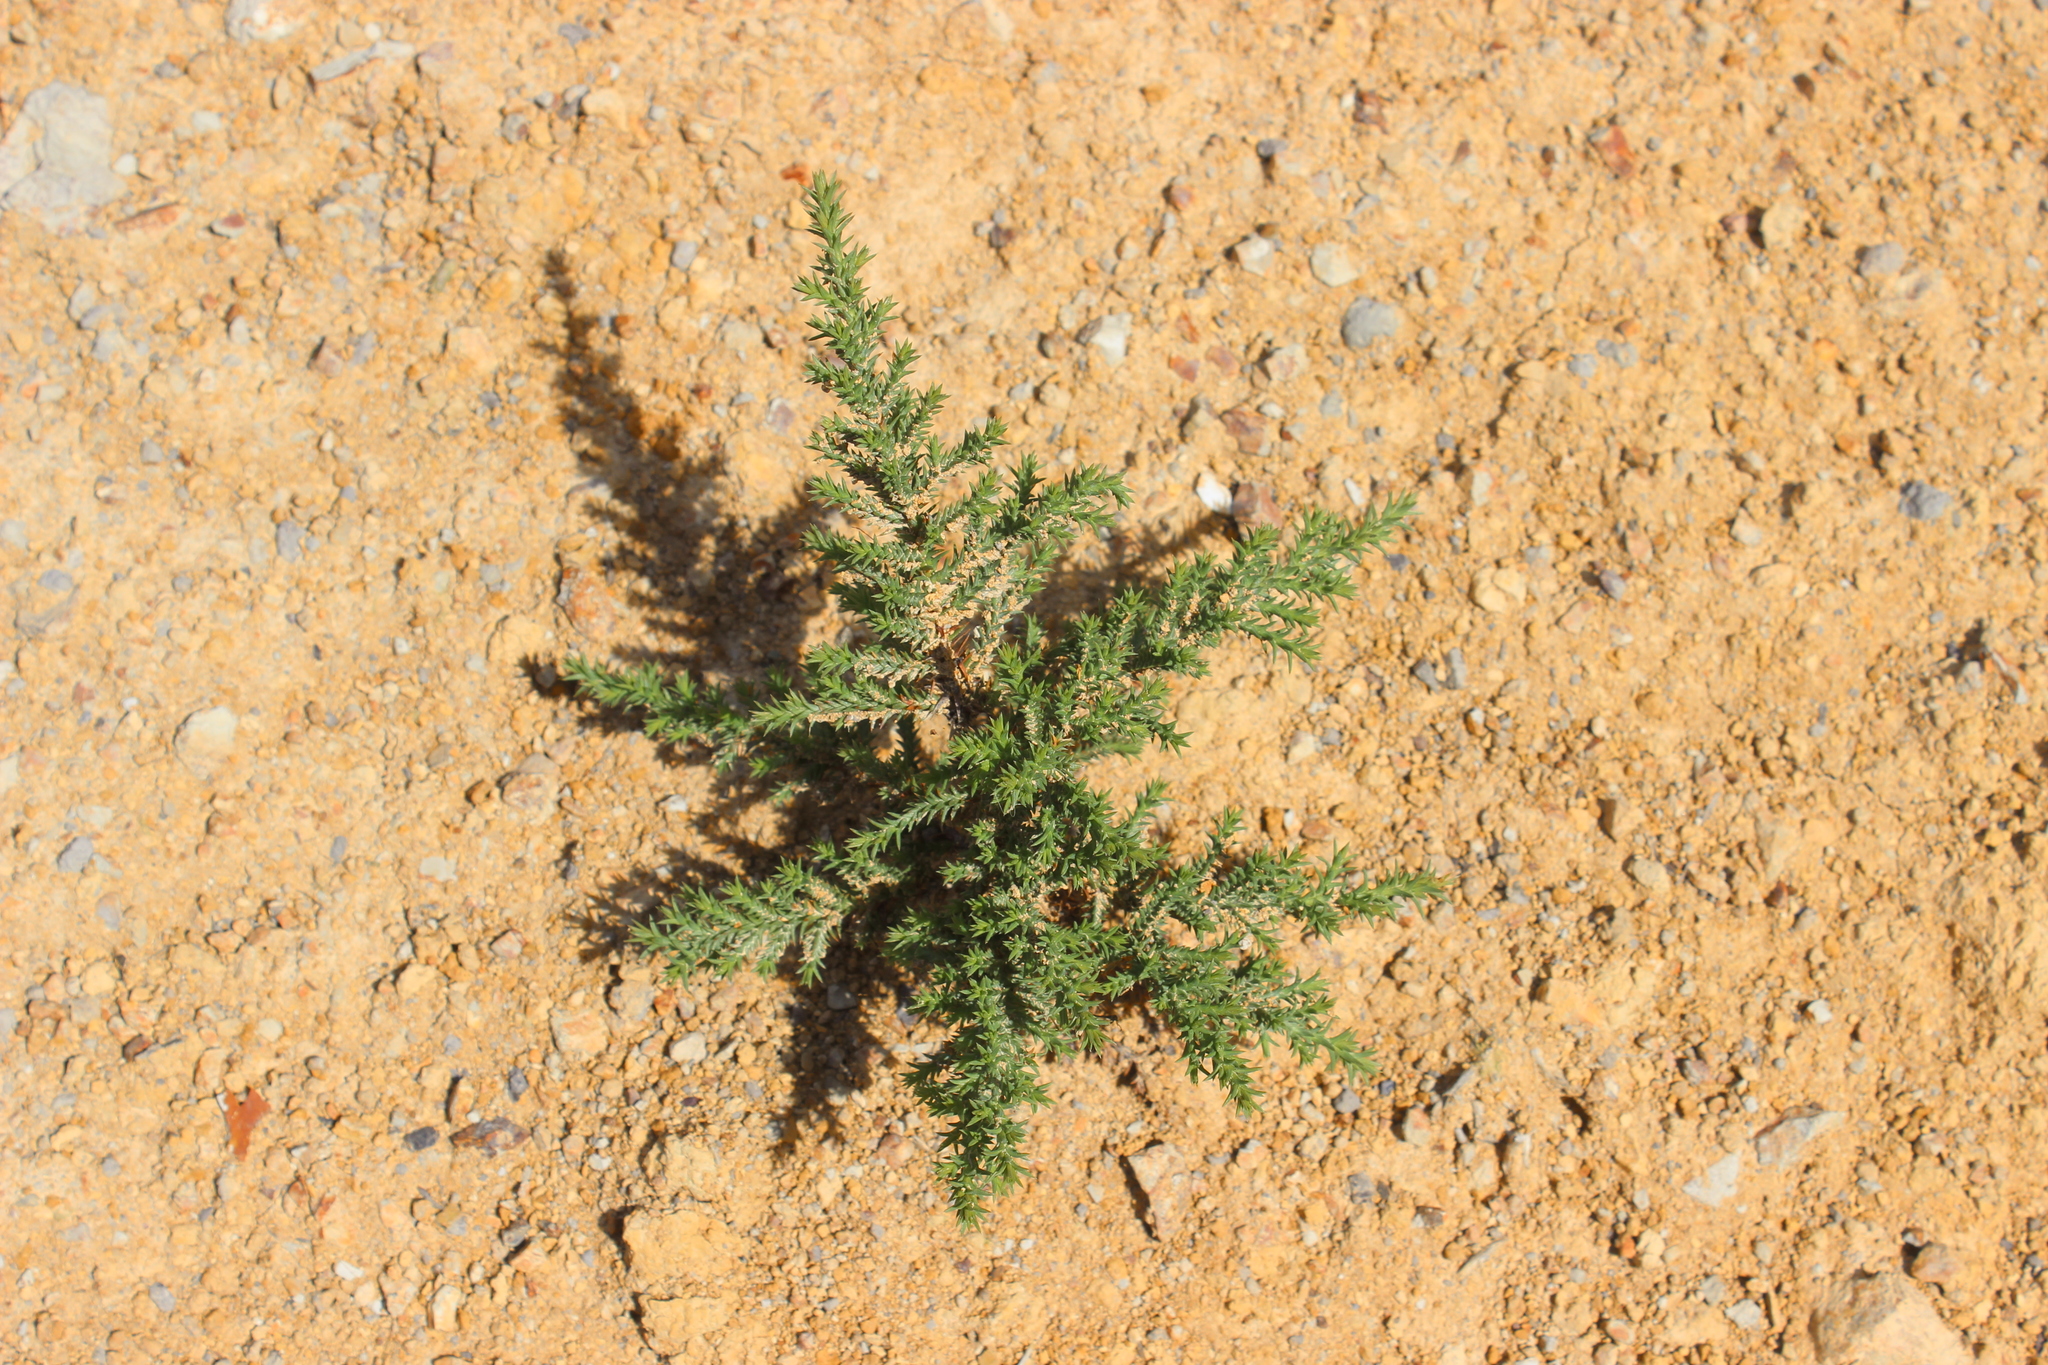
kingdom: Plantae
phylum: Tracheophyta
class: Pinopsida
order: Pinales
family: Cupressaceae
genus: Cupressus
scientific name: Cupressus macrocarpa
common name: Monterey cypress
